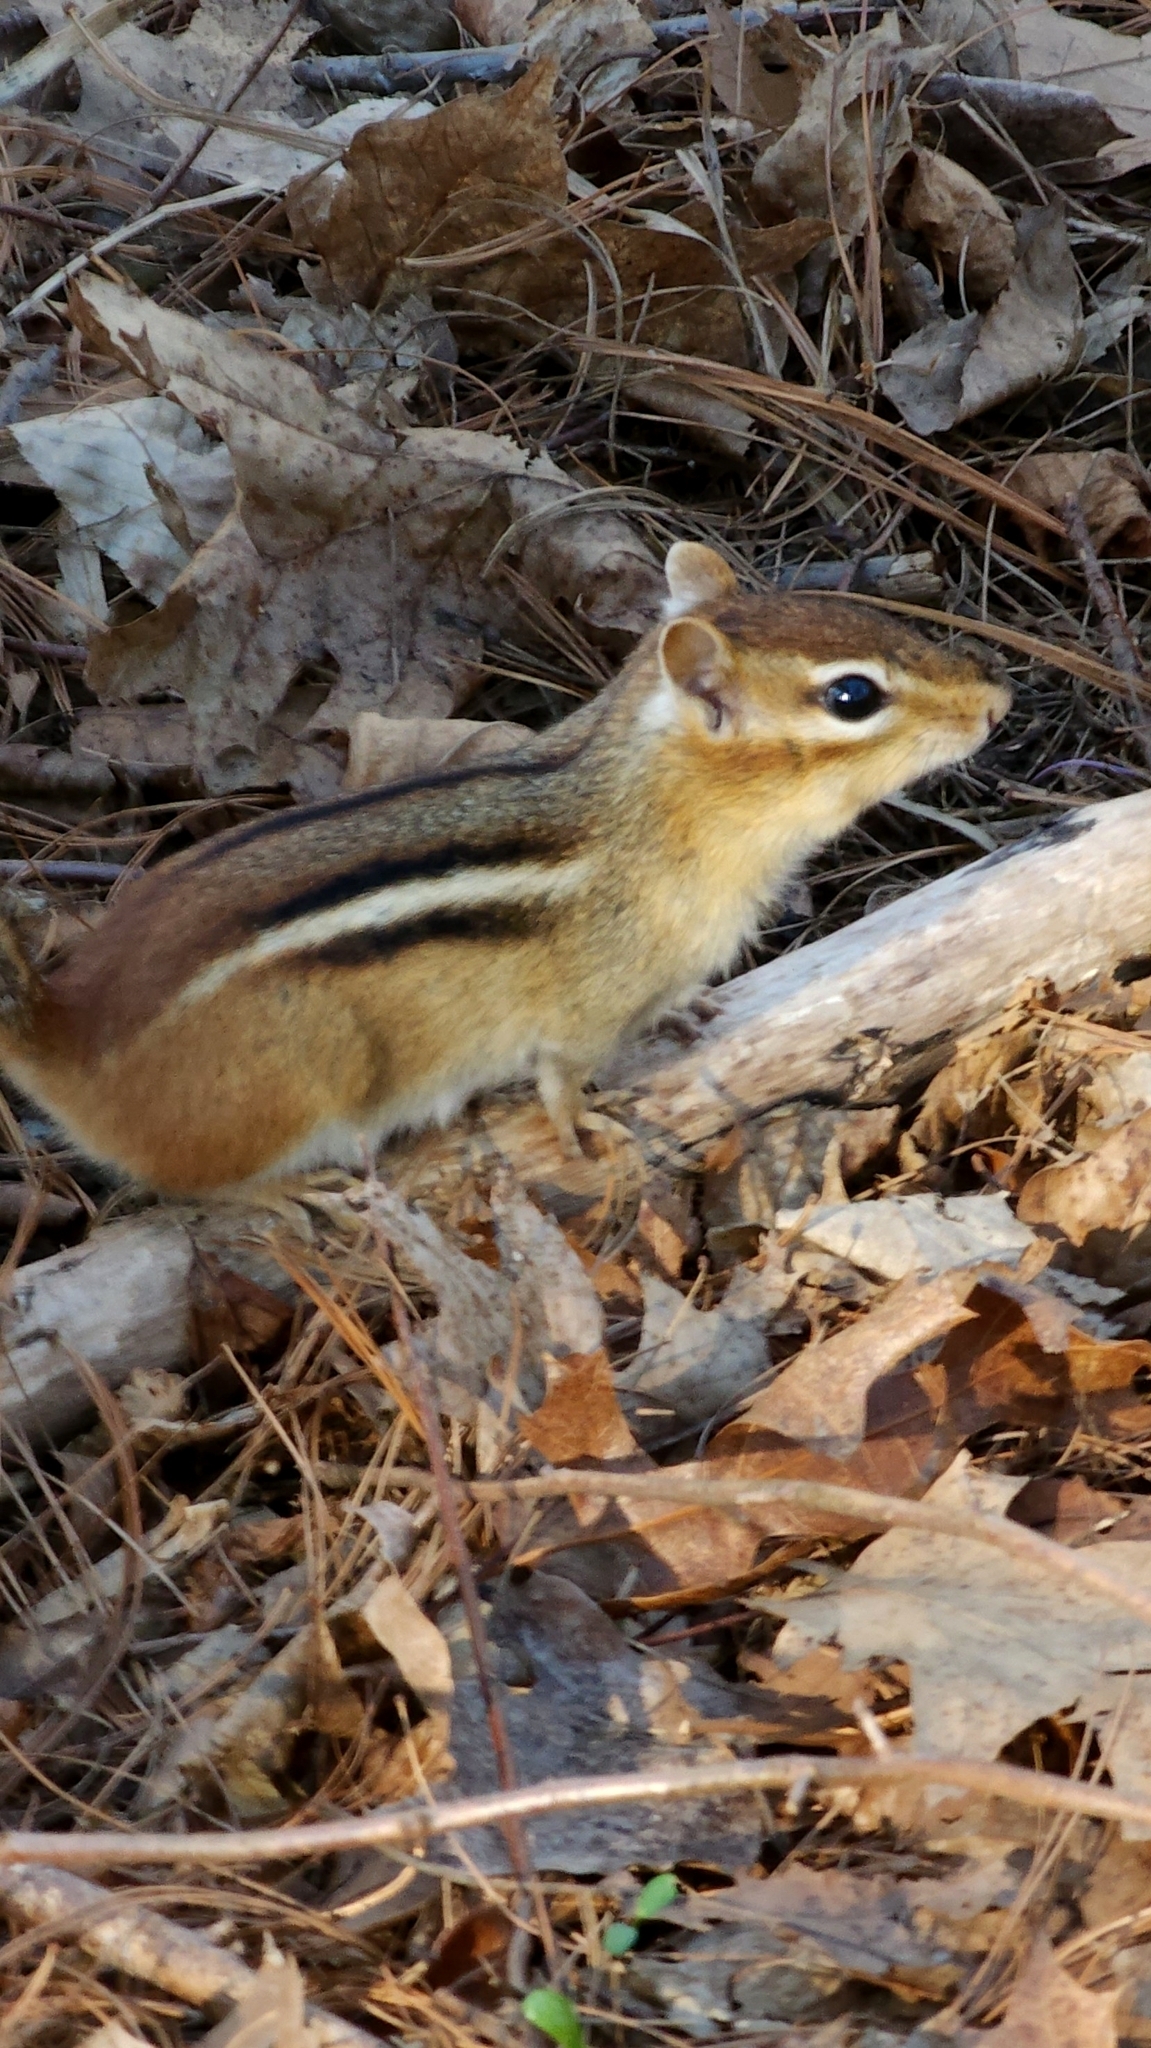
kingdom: Animalia
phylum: Chordata
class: Mammalia
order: Rodentia
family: Sciuridae
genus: Tamias
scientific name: Tamias striatus
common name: Eastern chipmunk
